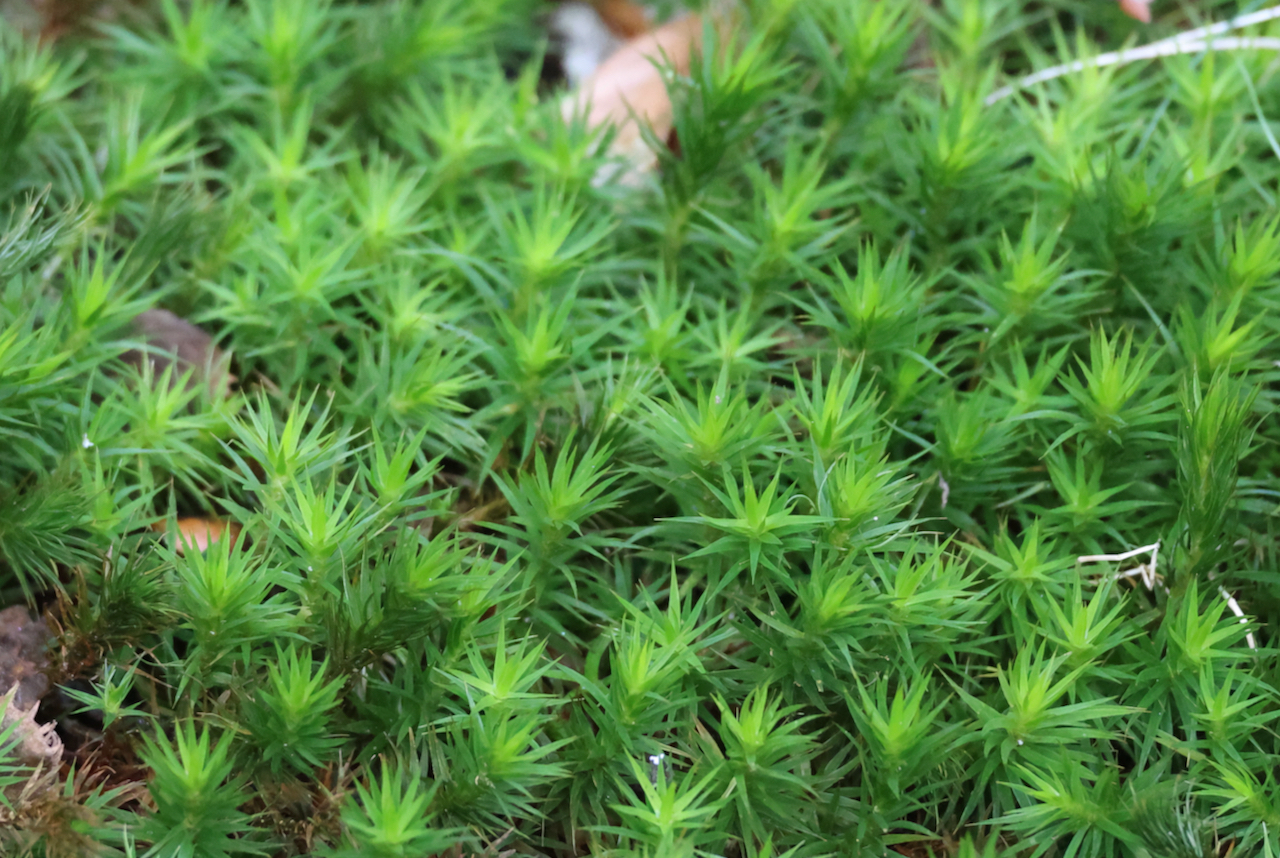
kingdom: Plantae
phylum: Bryophyta
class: Polytrichopsida
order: Polytrichales
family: Polytrichaceae
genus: Polytrichum
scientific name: Polytrichum formosum
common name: Bank haircap moss
